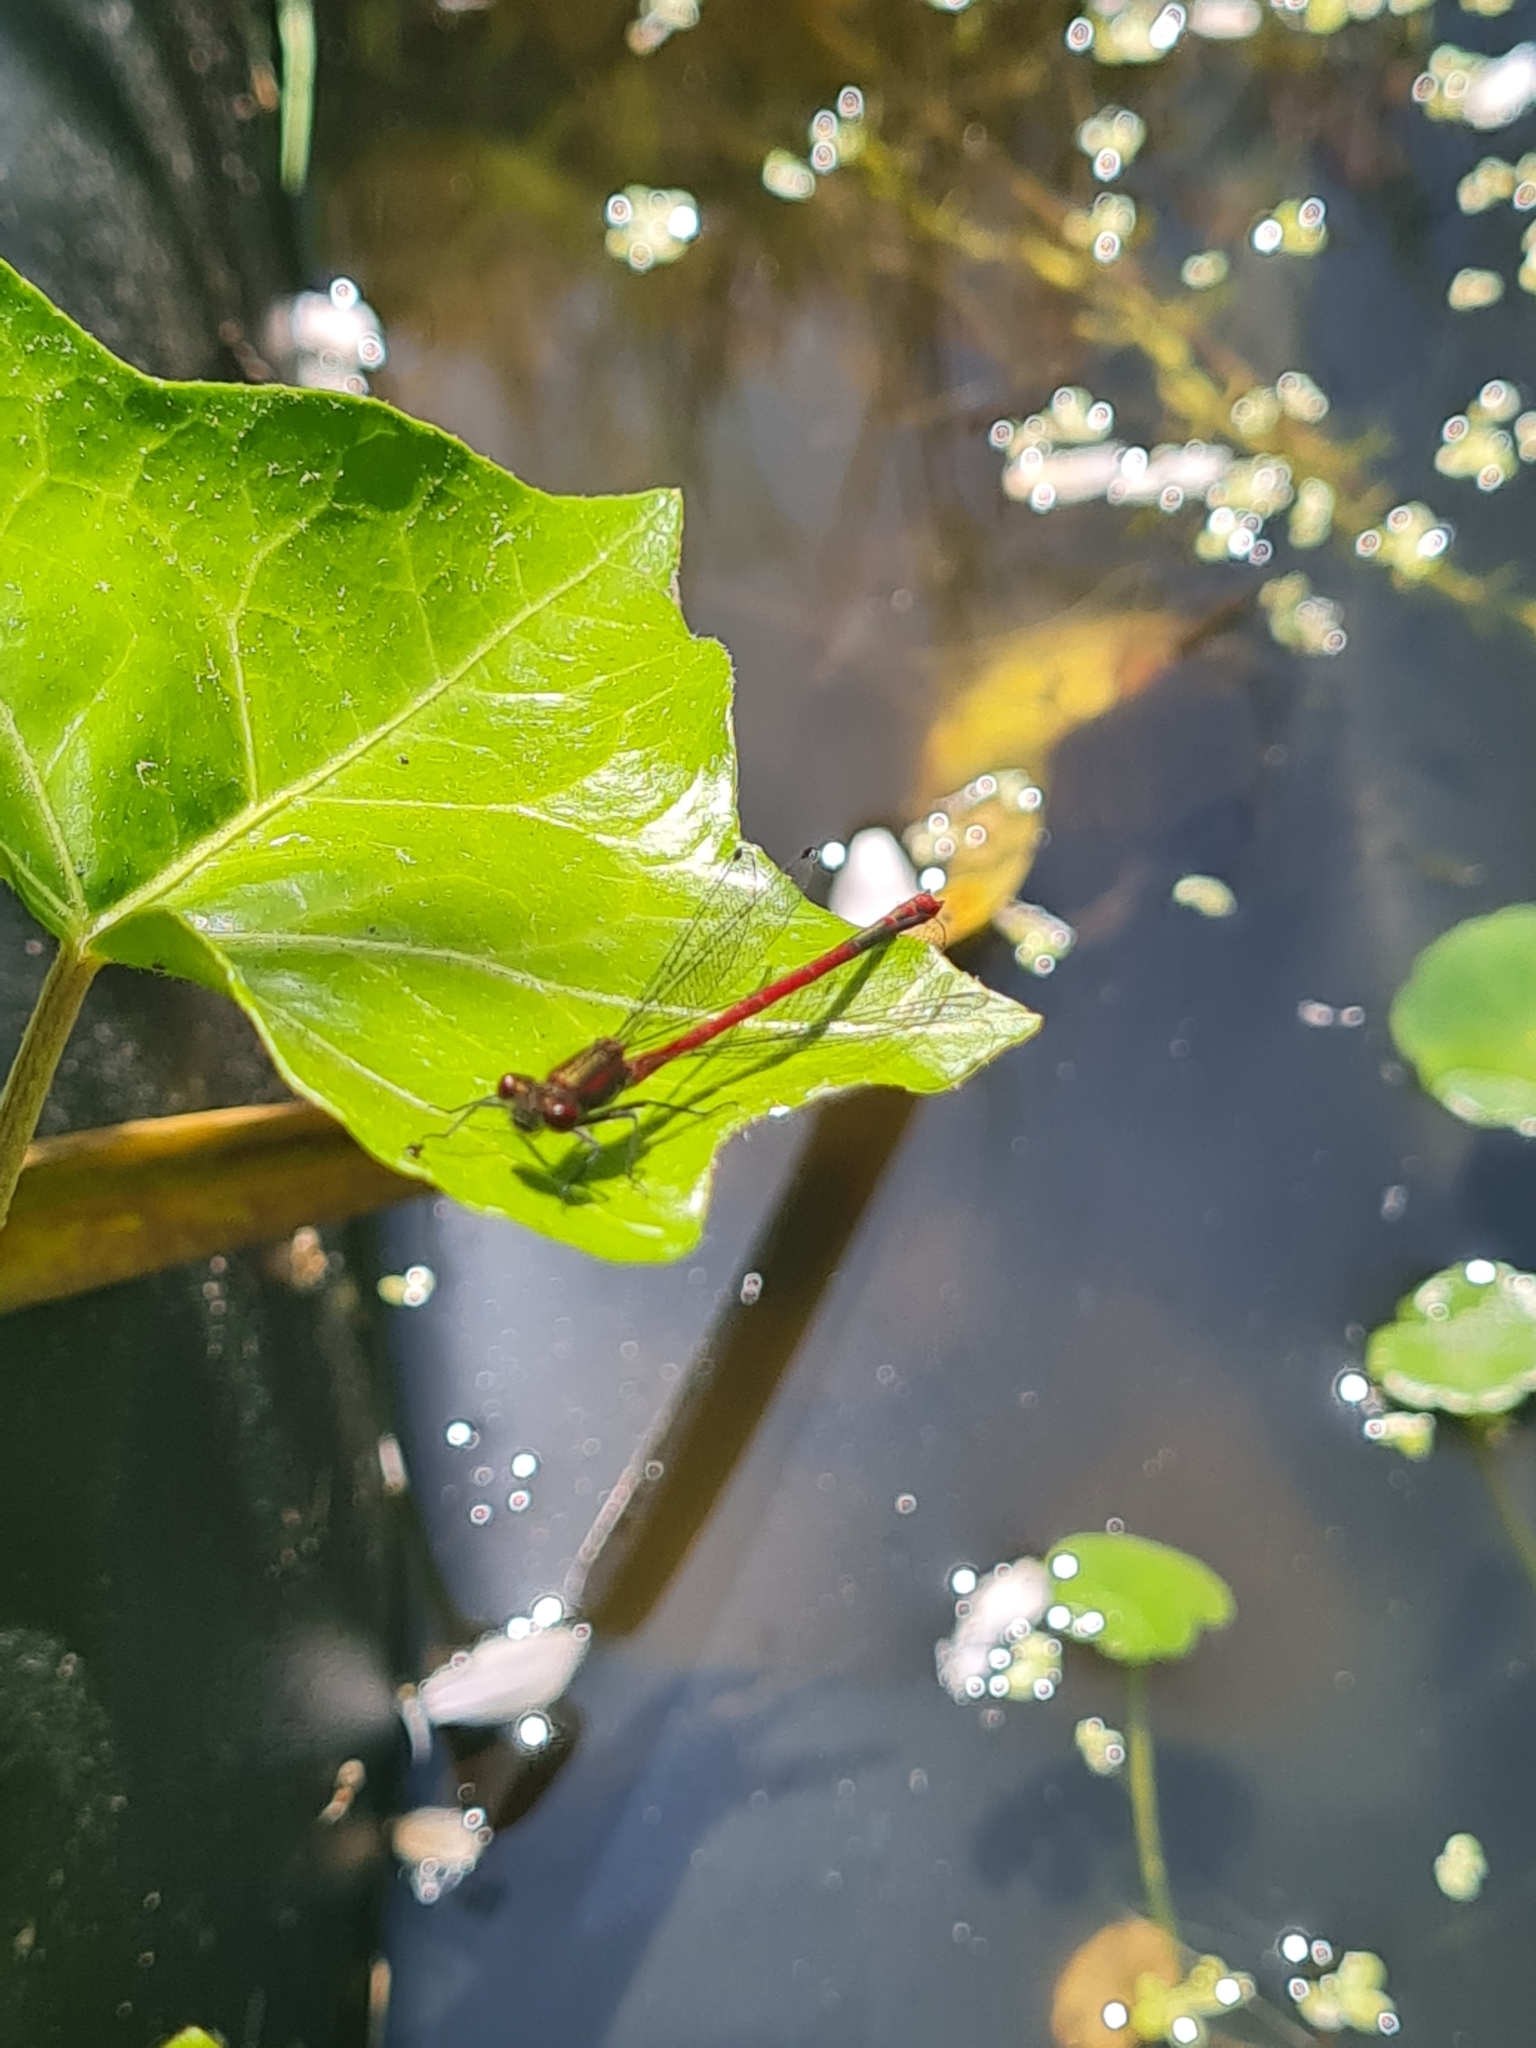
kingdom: Animalia
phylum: Arthropoda
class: Insecta
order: Odonata
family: Coenagrionidae
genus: Pyrrhosoma
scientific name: Pyrrhosoma nymphula
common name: Large red damsel
